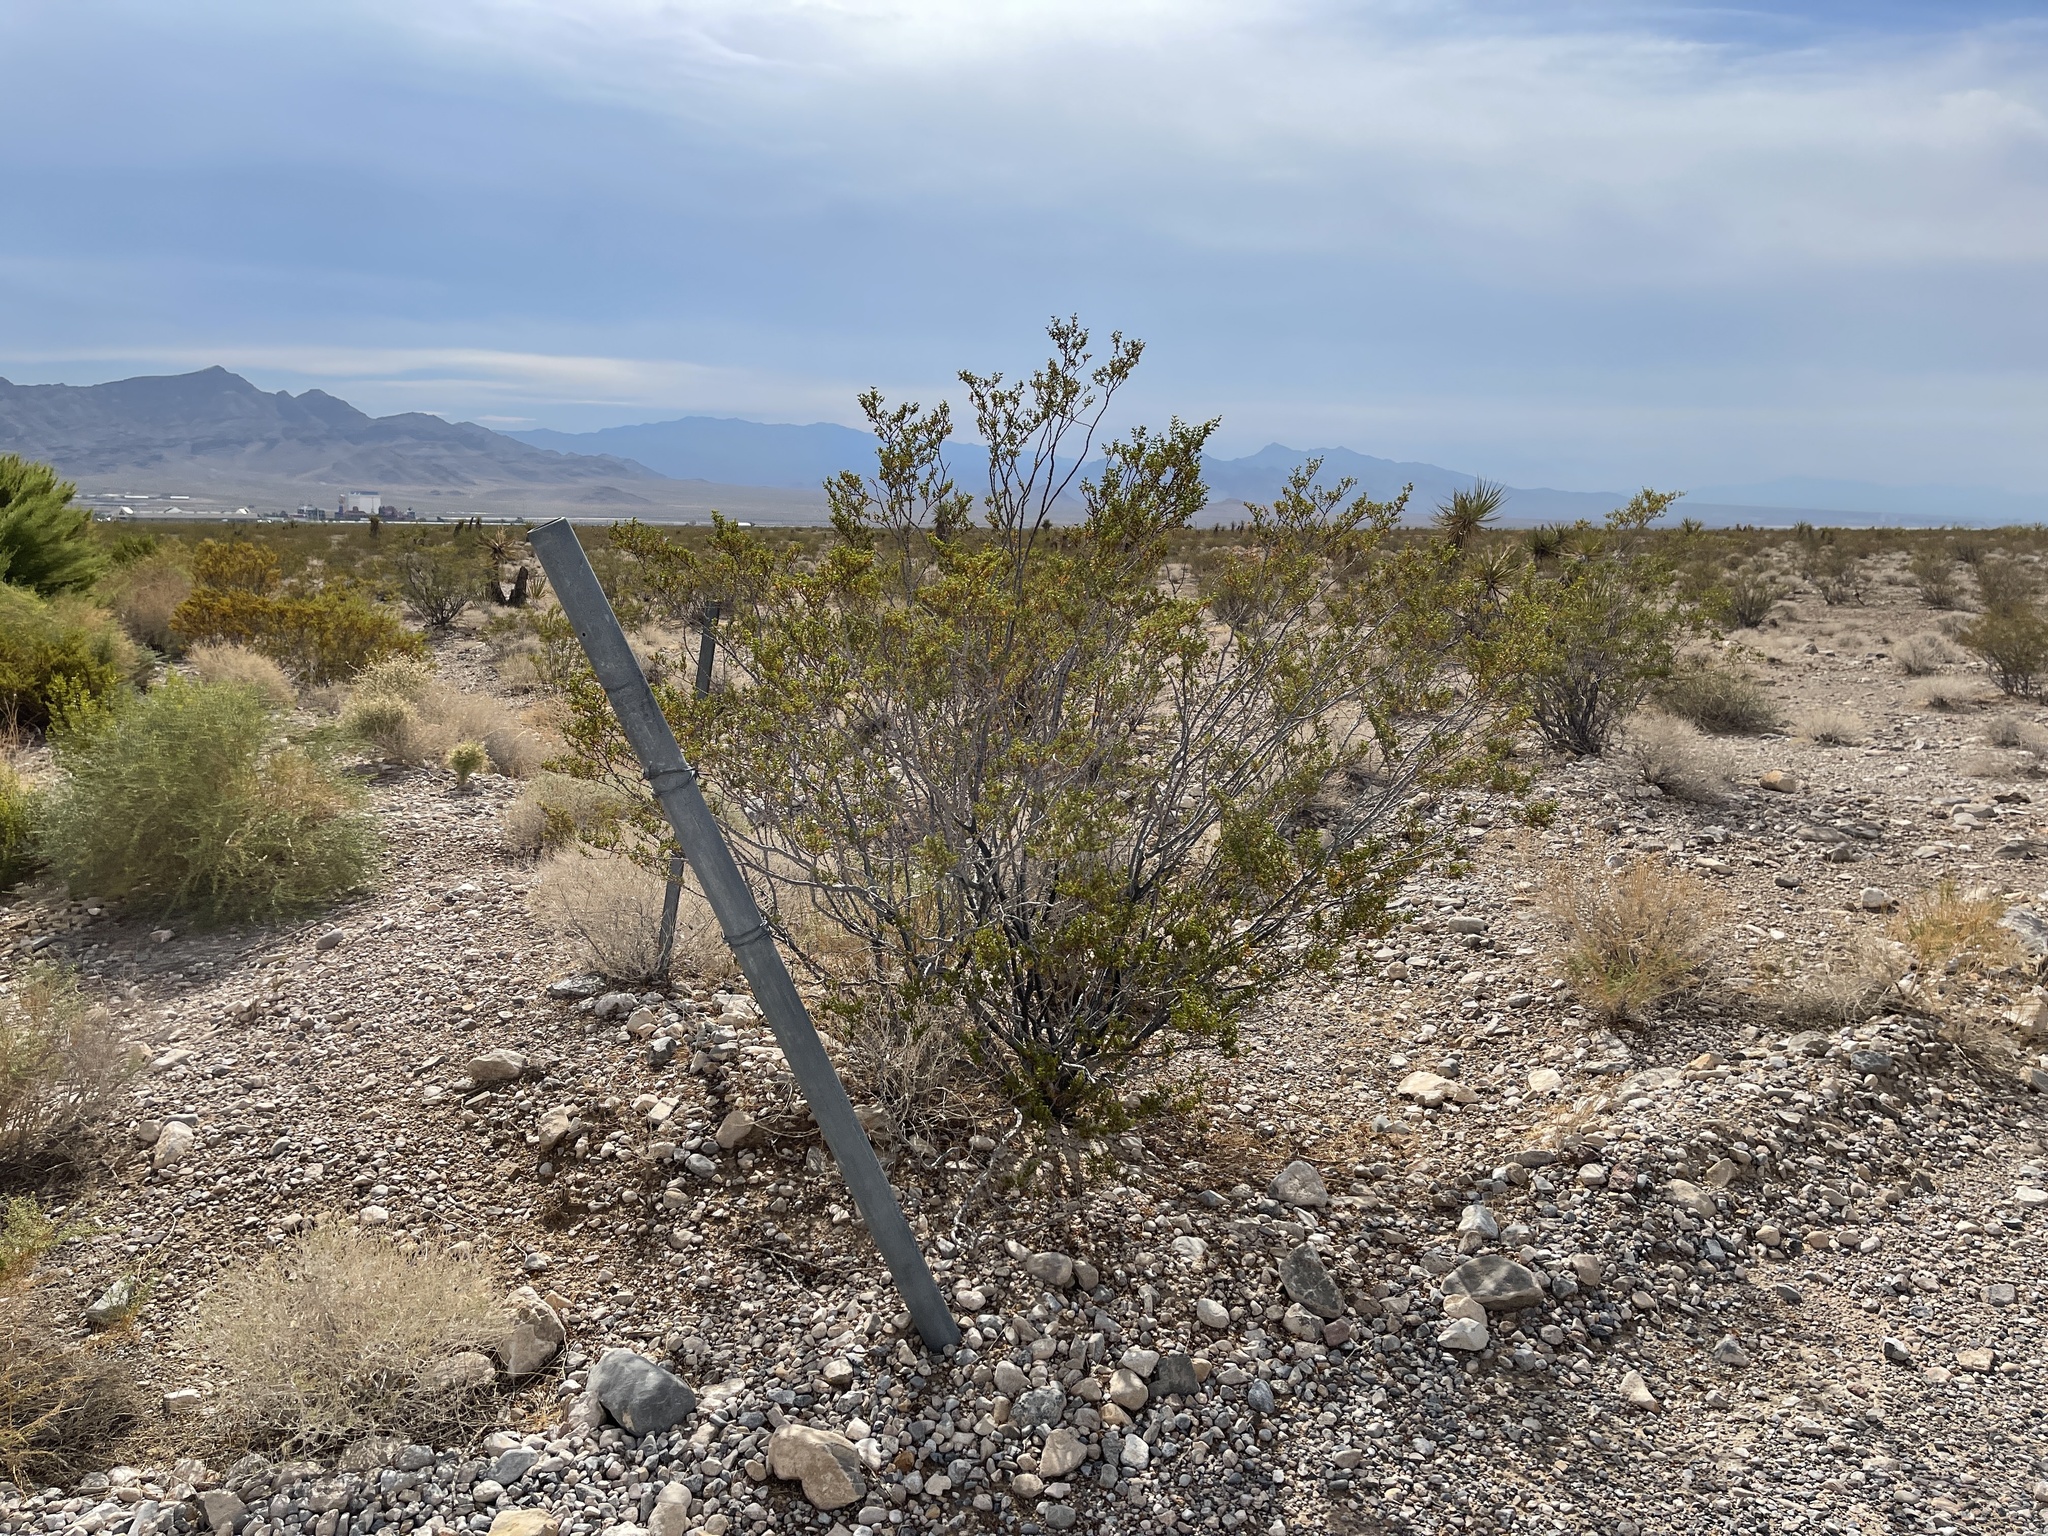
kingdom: Plantae
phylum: Tracheophyta
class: Magnoliopsida
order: Zygophyllales
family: Zygophyllaceae
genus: Larrea
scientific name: Larrea tridentata
